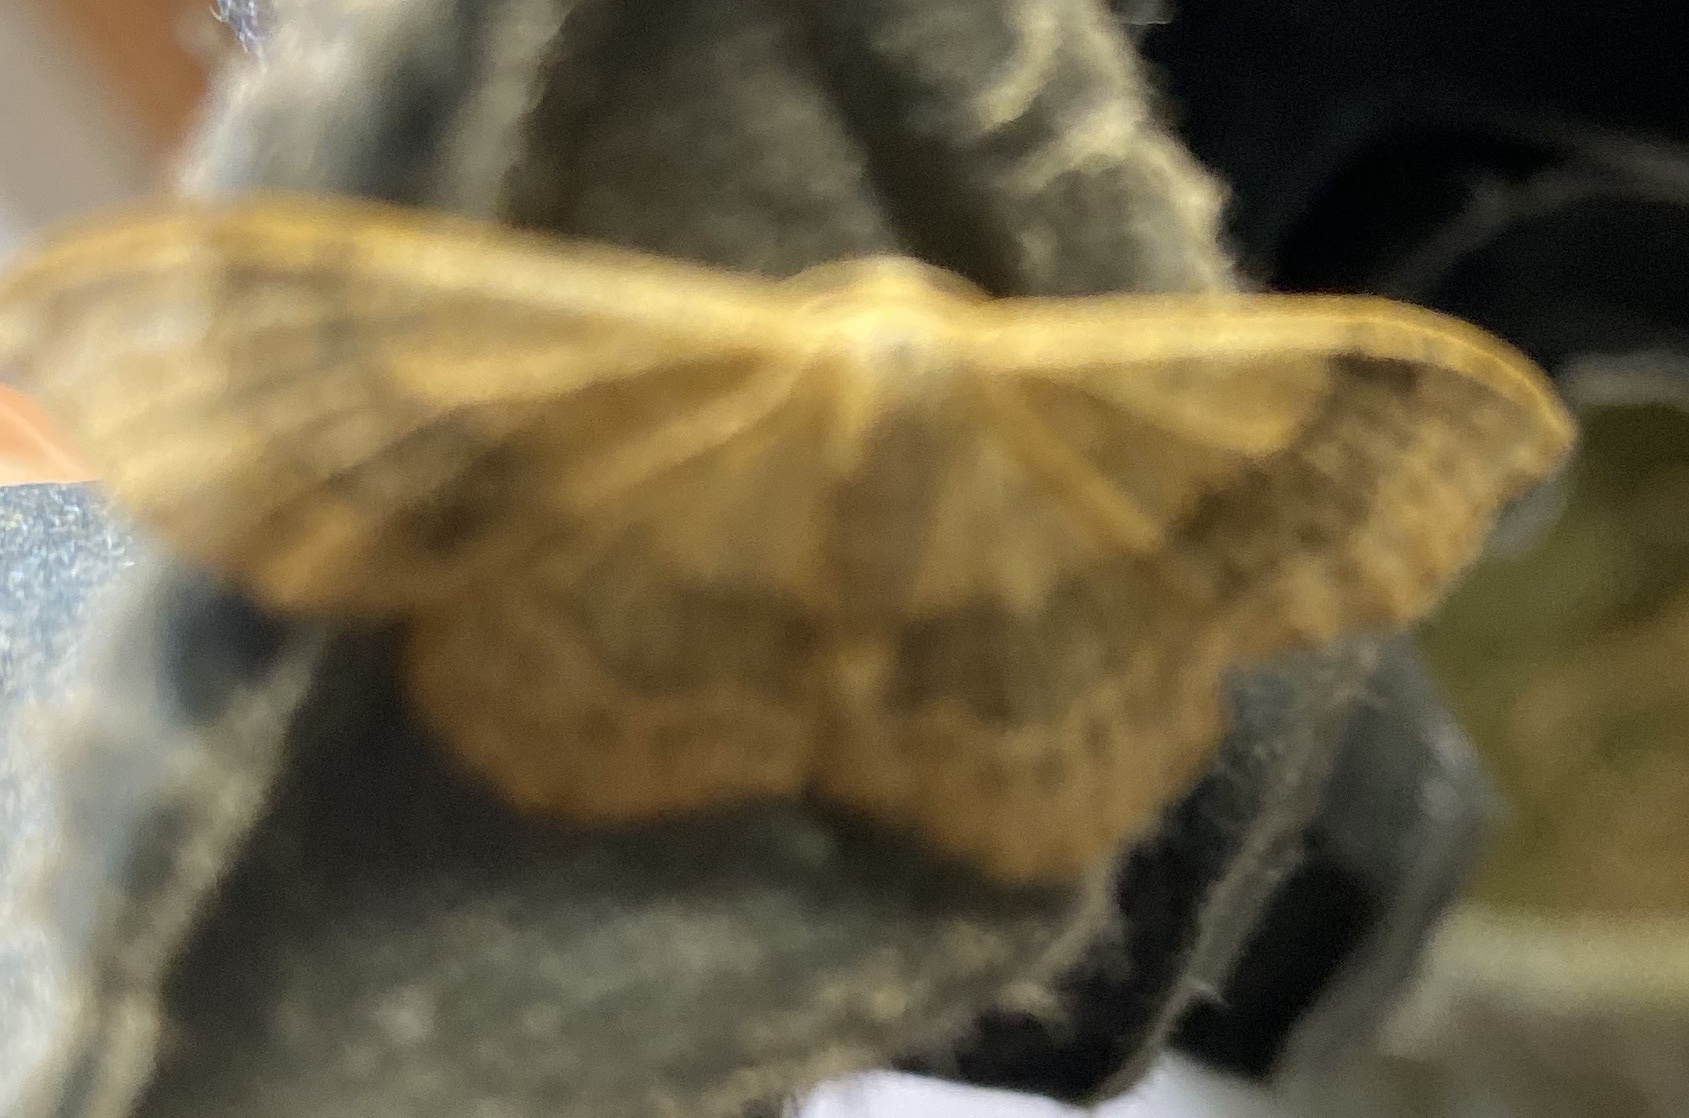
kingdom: Animalia
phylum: Arthropoda
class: Insecta
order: Lepidoptera
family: Geometridae
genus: Idaea
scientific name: Idaea aversata
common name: Riband wave
